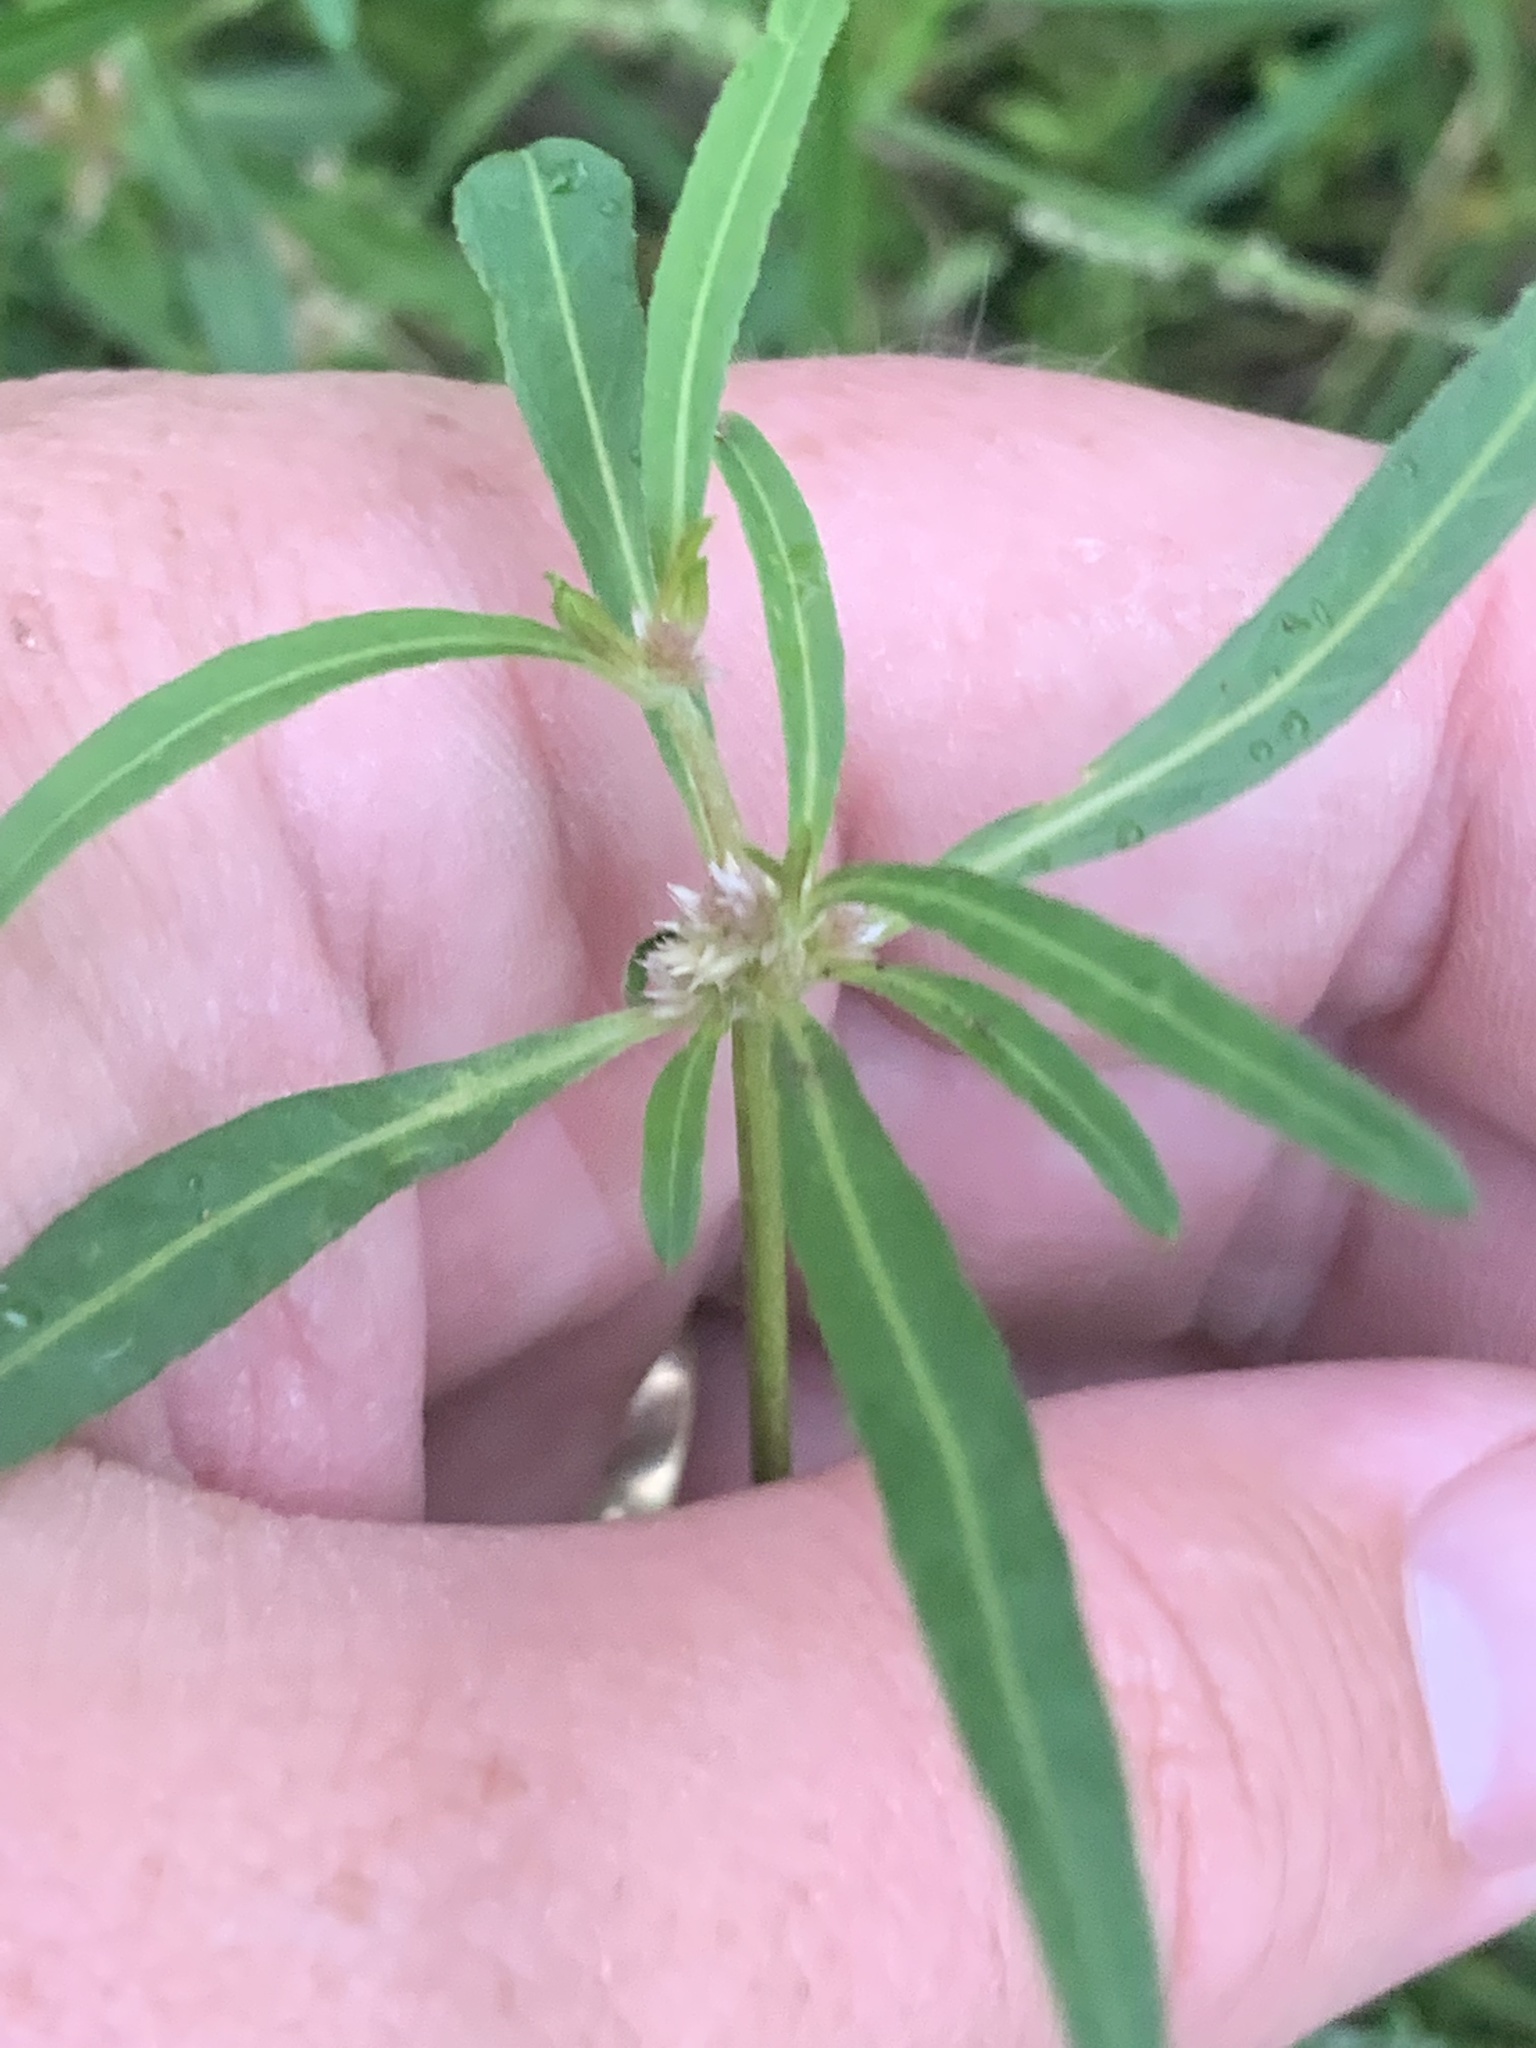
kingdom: Plantae
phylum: Tracheophyta
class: Magnoliopsida
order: Caryophyllales
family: Amaranthaceae
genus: Alternanthera
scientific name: Alternanthera denticulata
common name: Lesser joyweed
